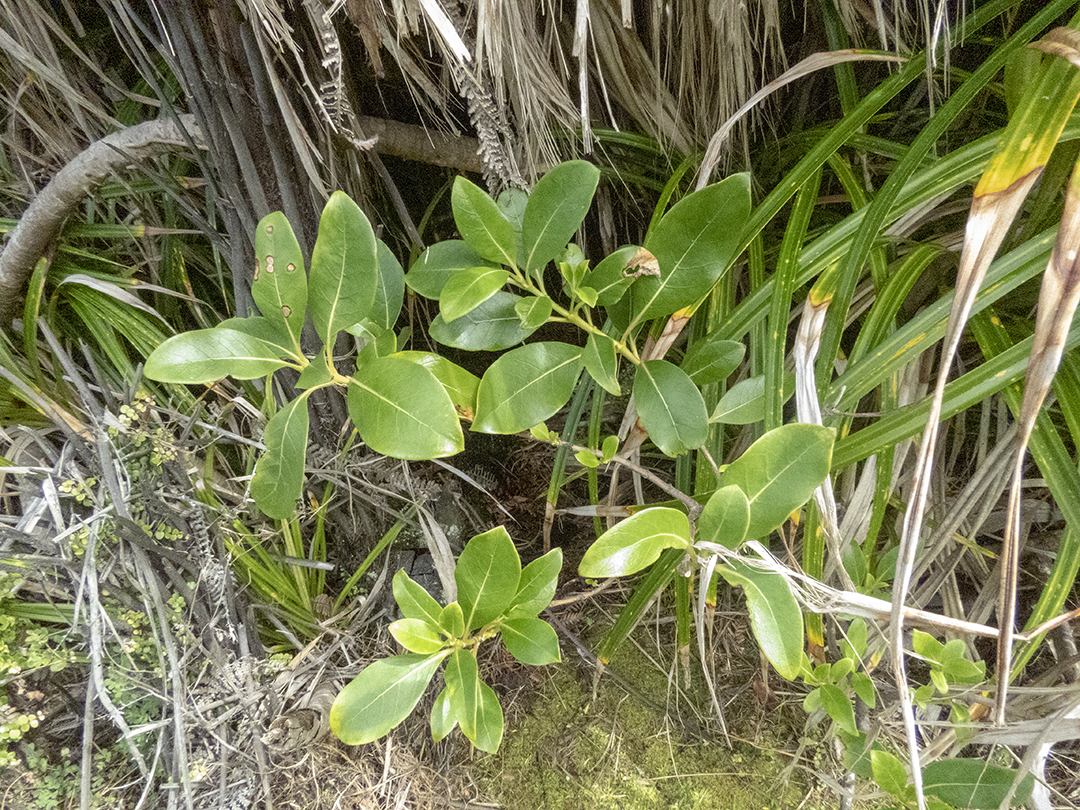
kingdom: Plantae
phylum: Tracheophyta
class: Magnoliopsida
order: Gentianales
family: Rubiaceae
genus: Coprosma
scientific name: Coprosma lucida
